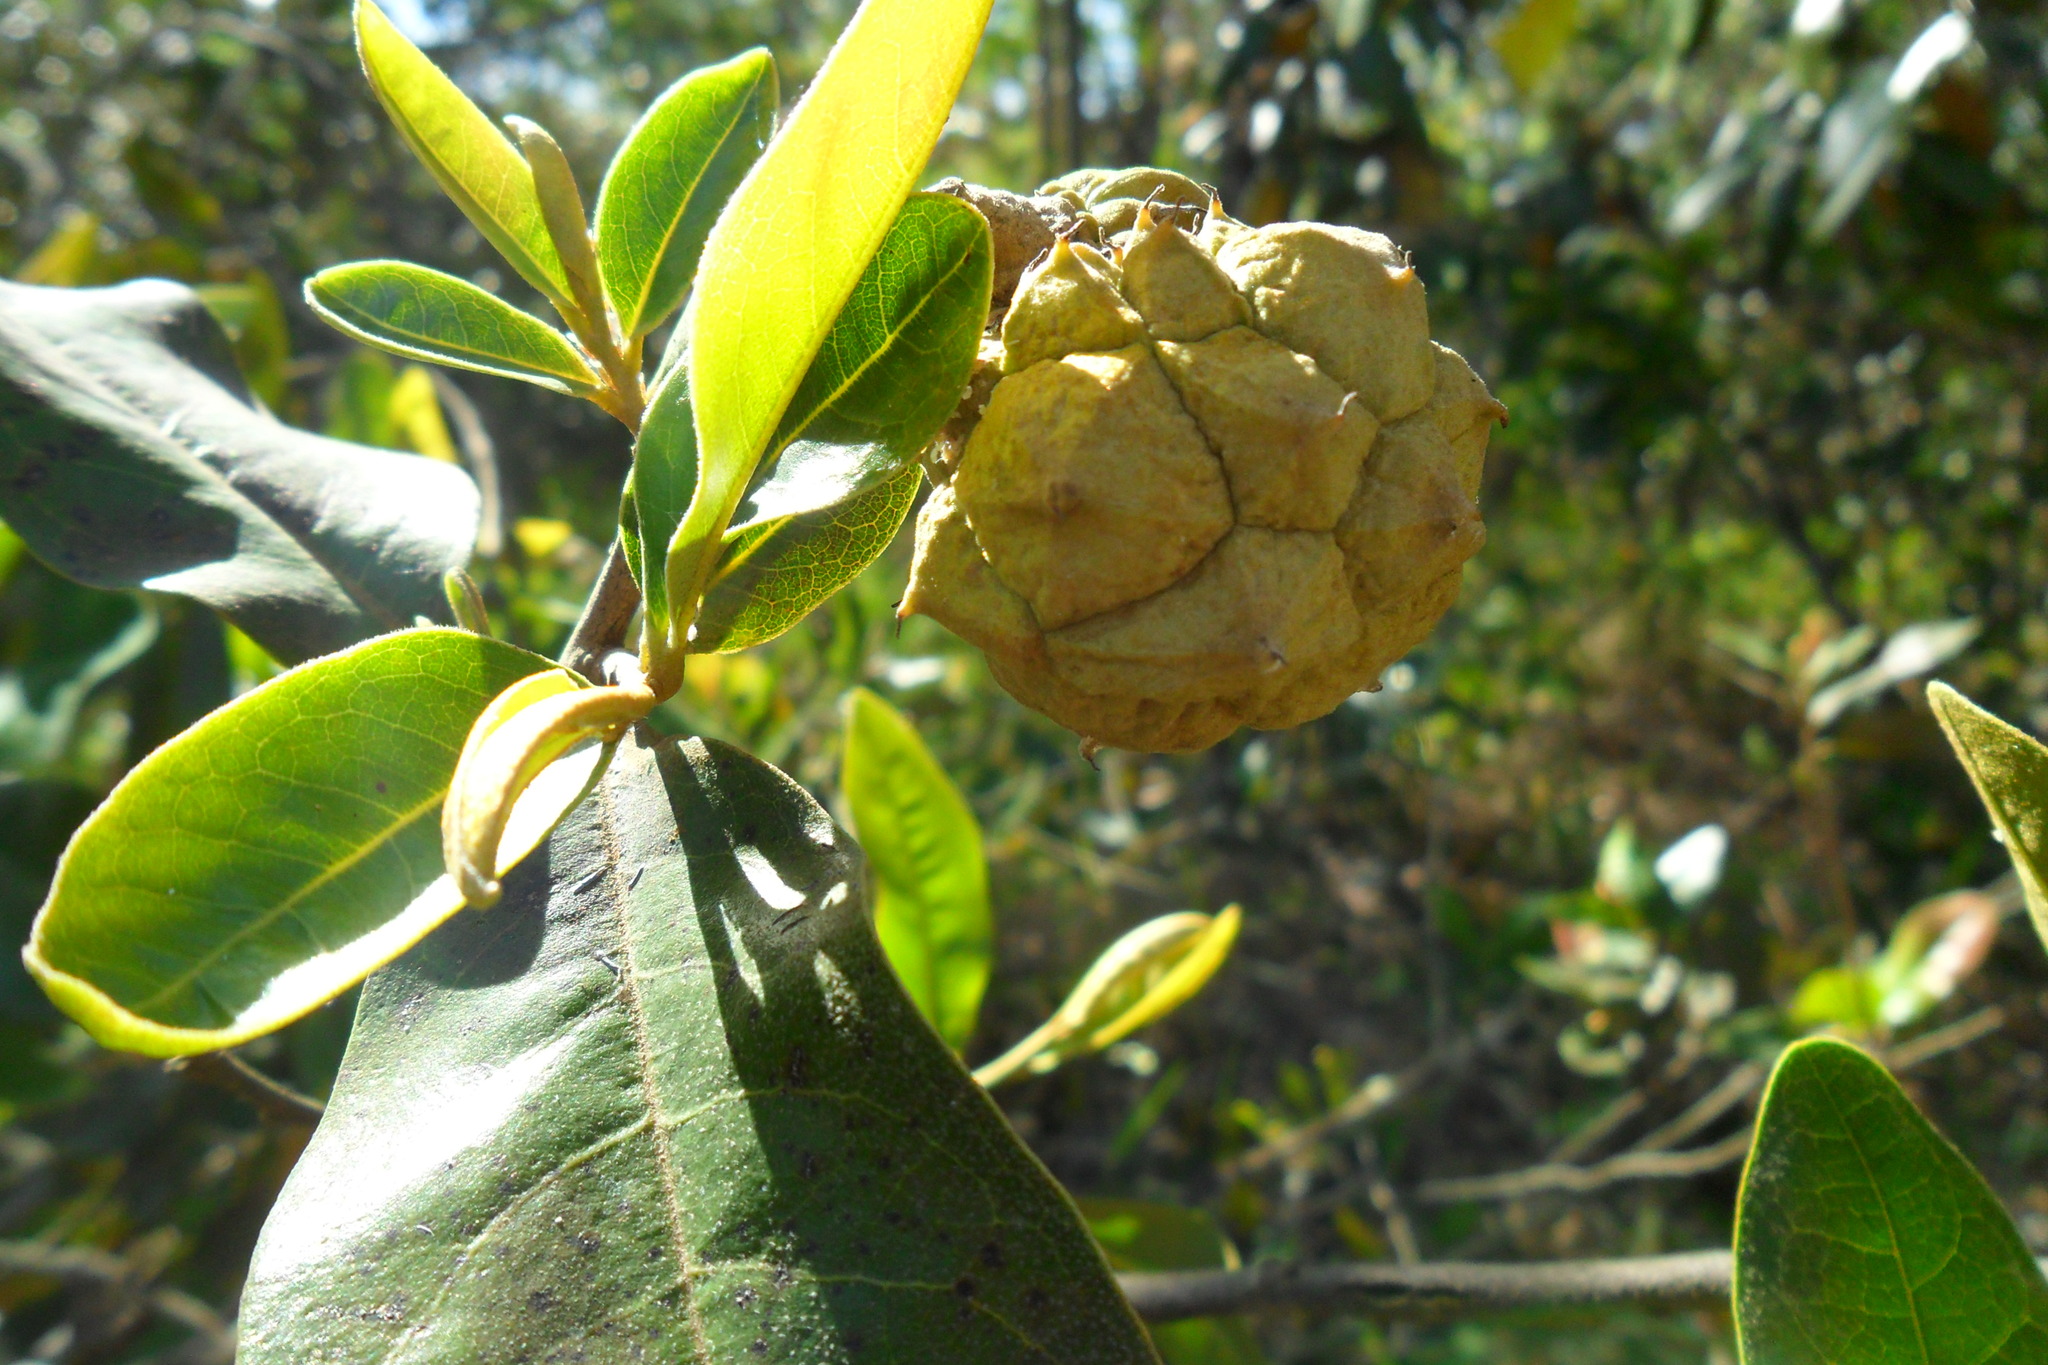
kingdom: Plantae
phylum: Tracheophyta
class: Magnoliopsida
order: Magnoliales
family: Annonaceae
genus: Duguetia
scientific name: Duguetia furfuracea
